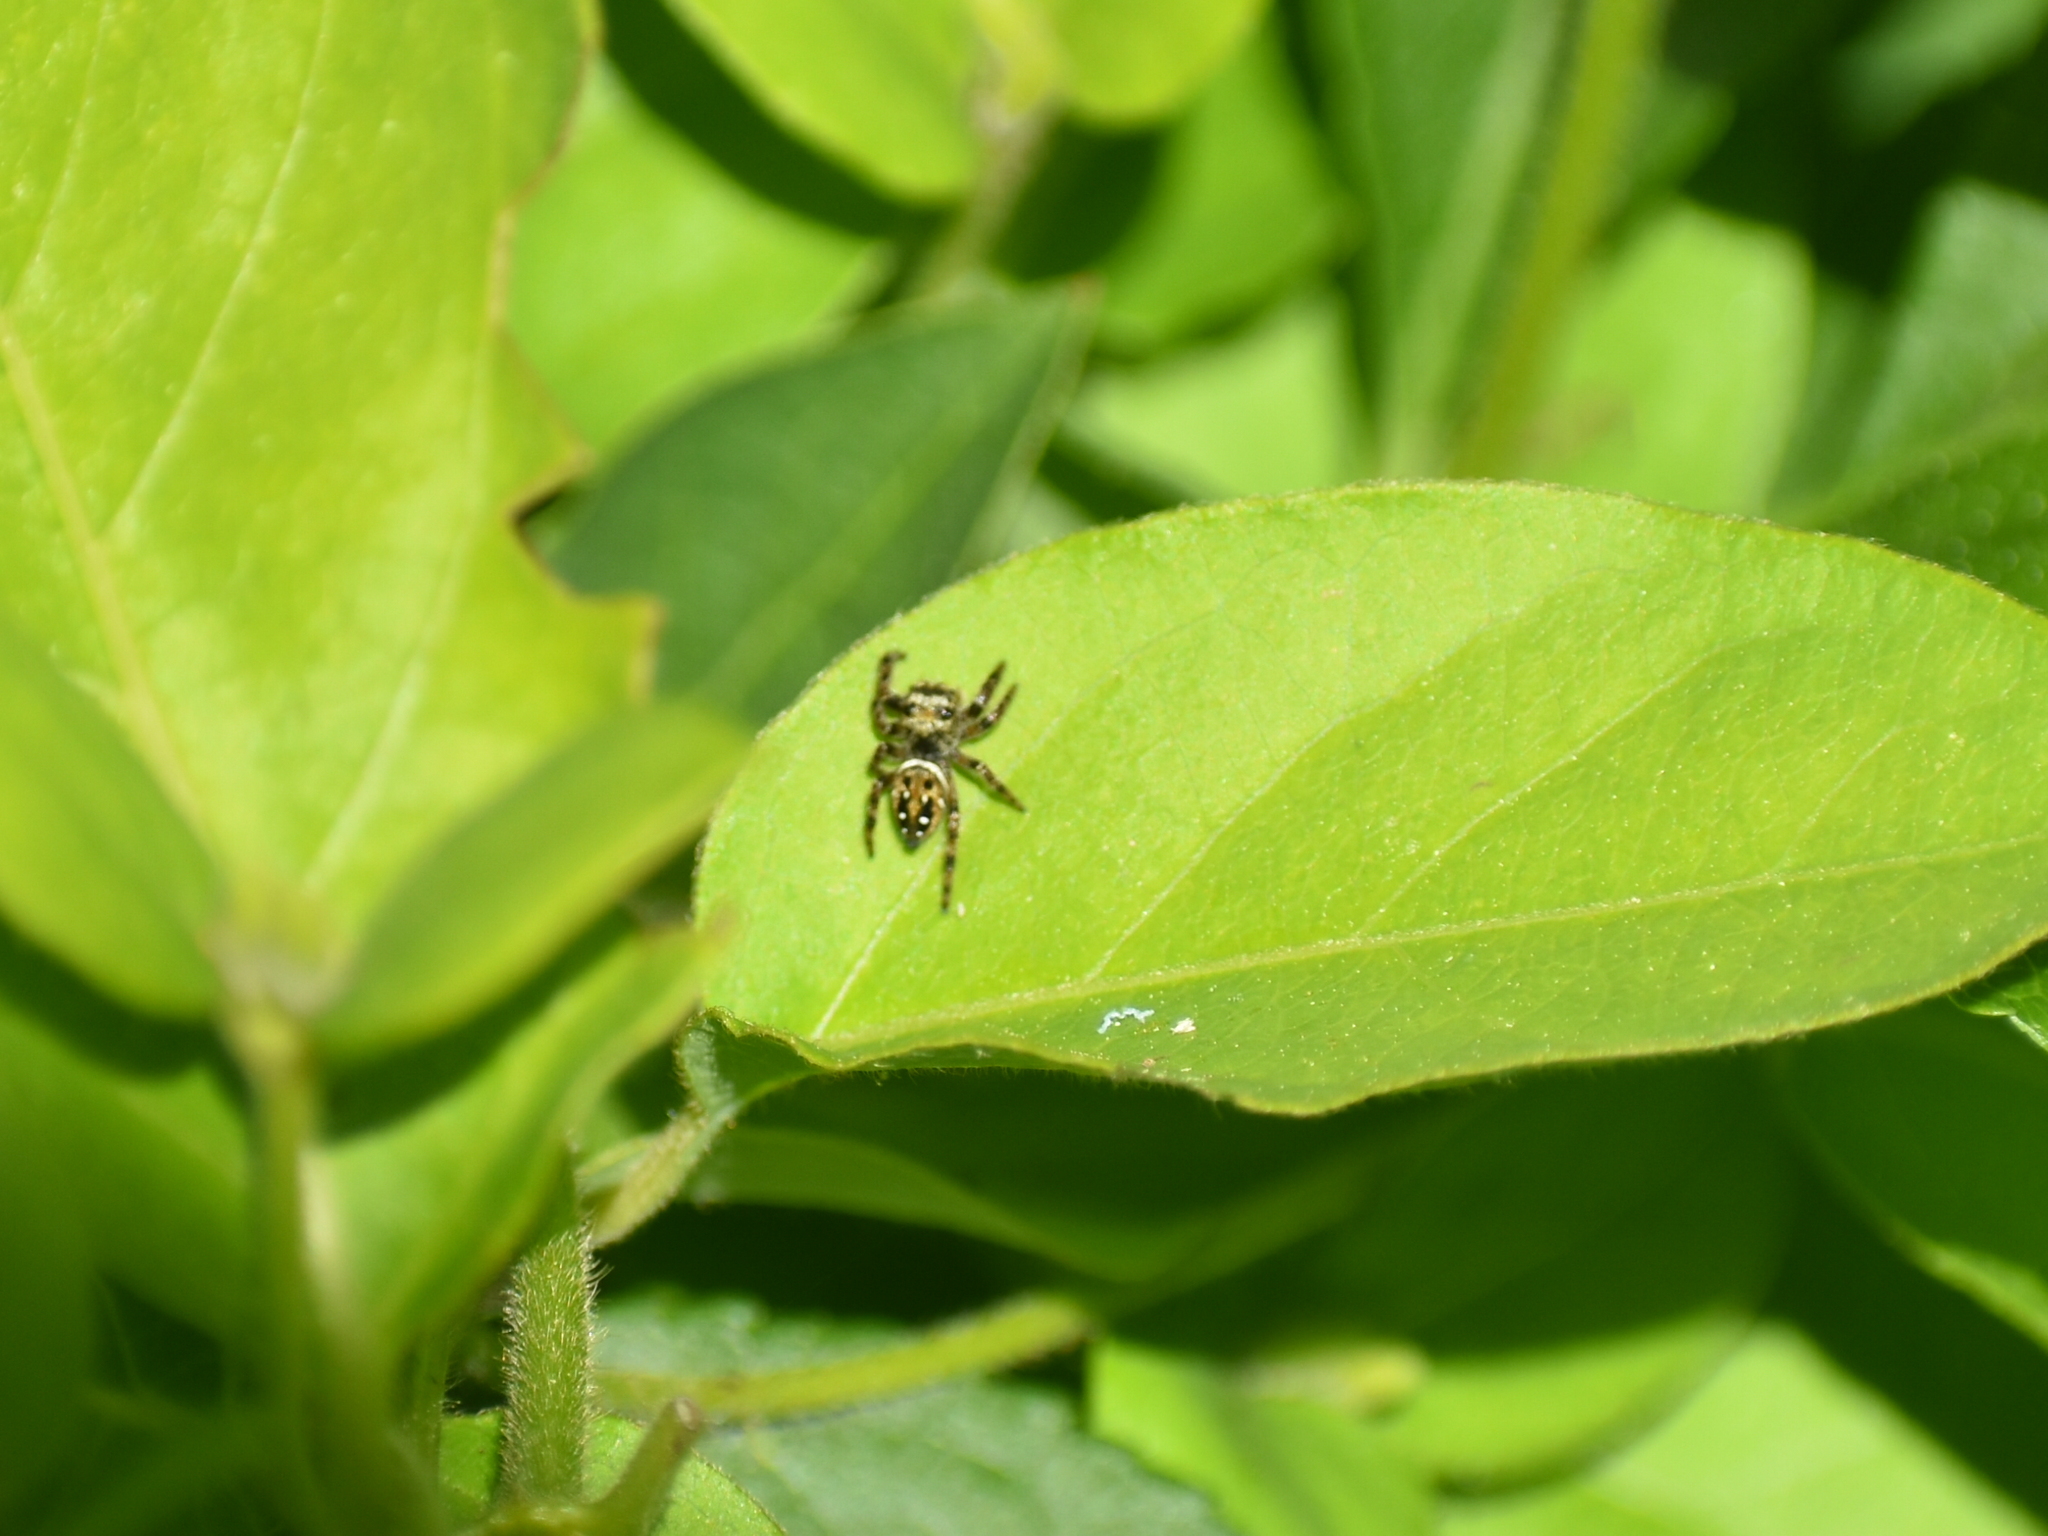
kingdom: Animalia
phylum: Arthropoda
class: Arachnida
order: Araneae
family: Salticidae
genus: Phidippus
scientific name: Phidippus clarus
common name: Brilliant jumping spider
